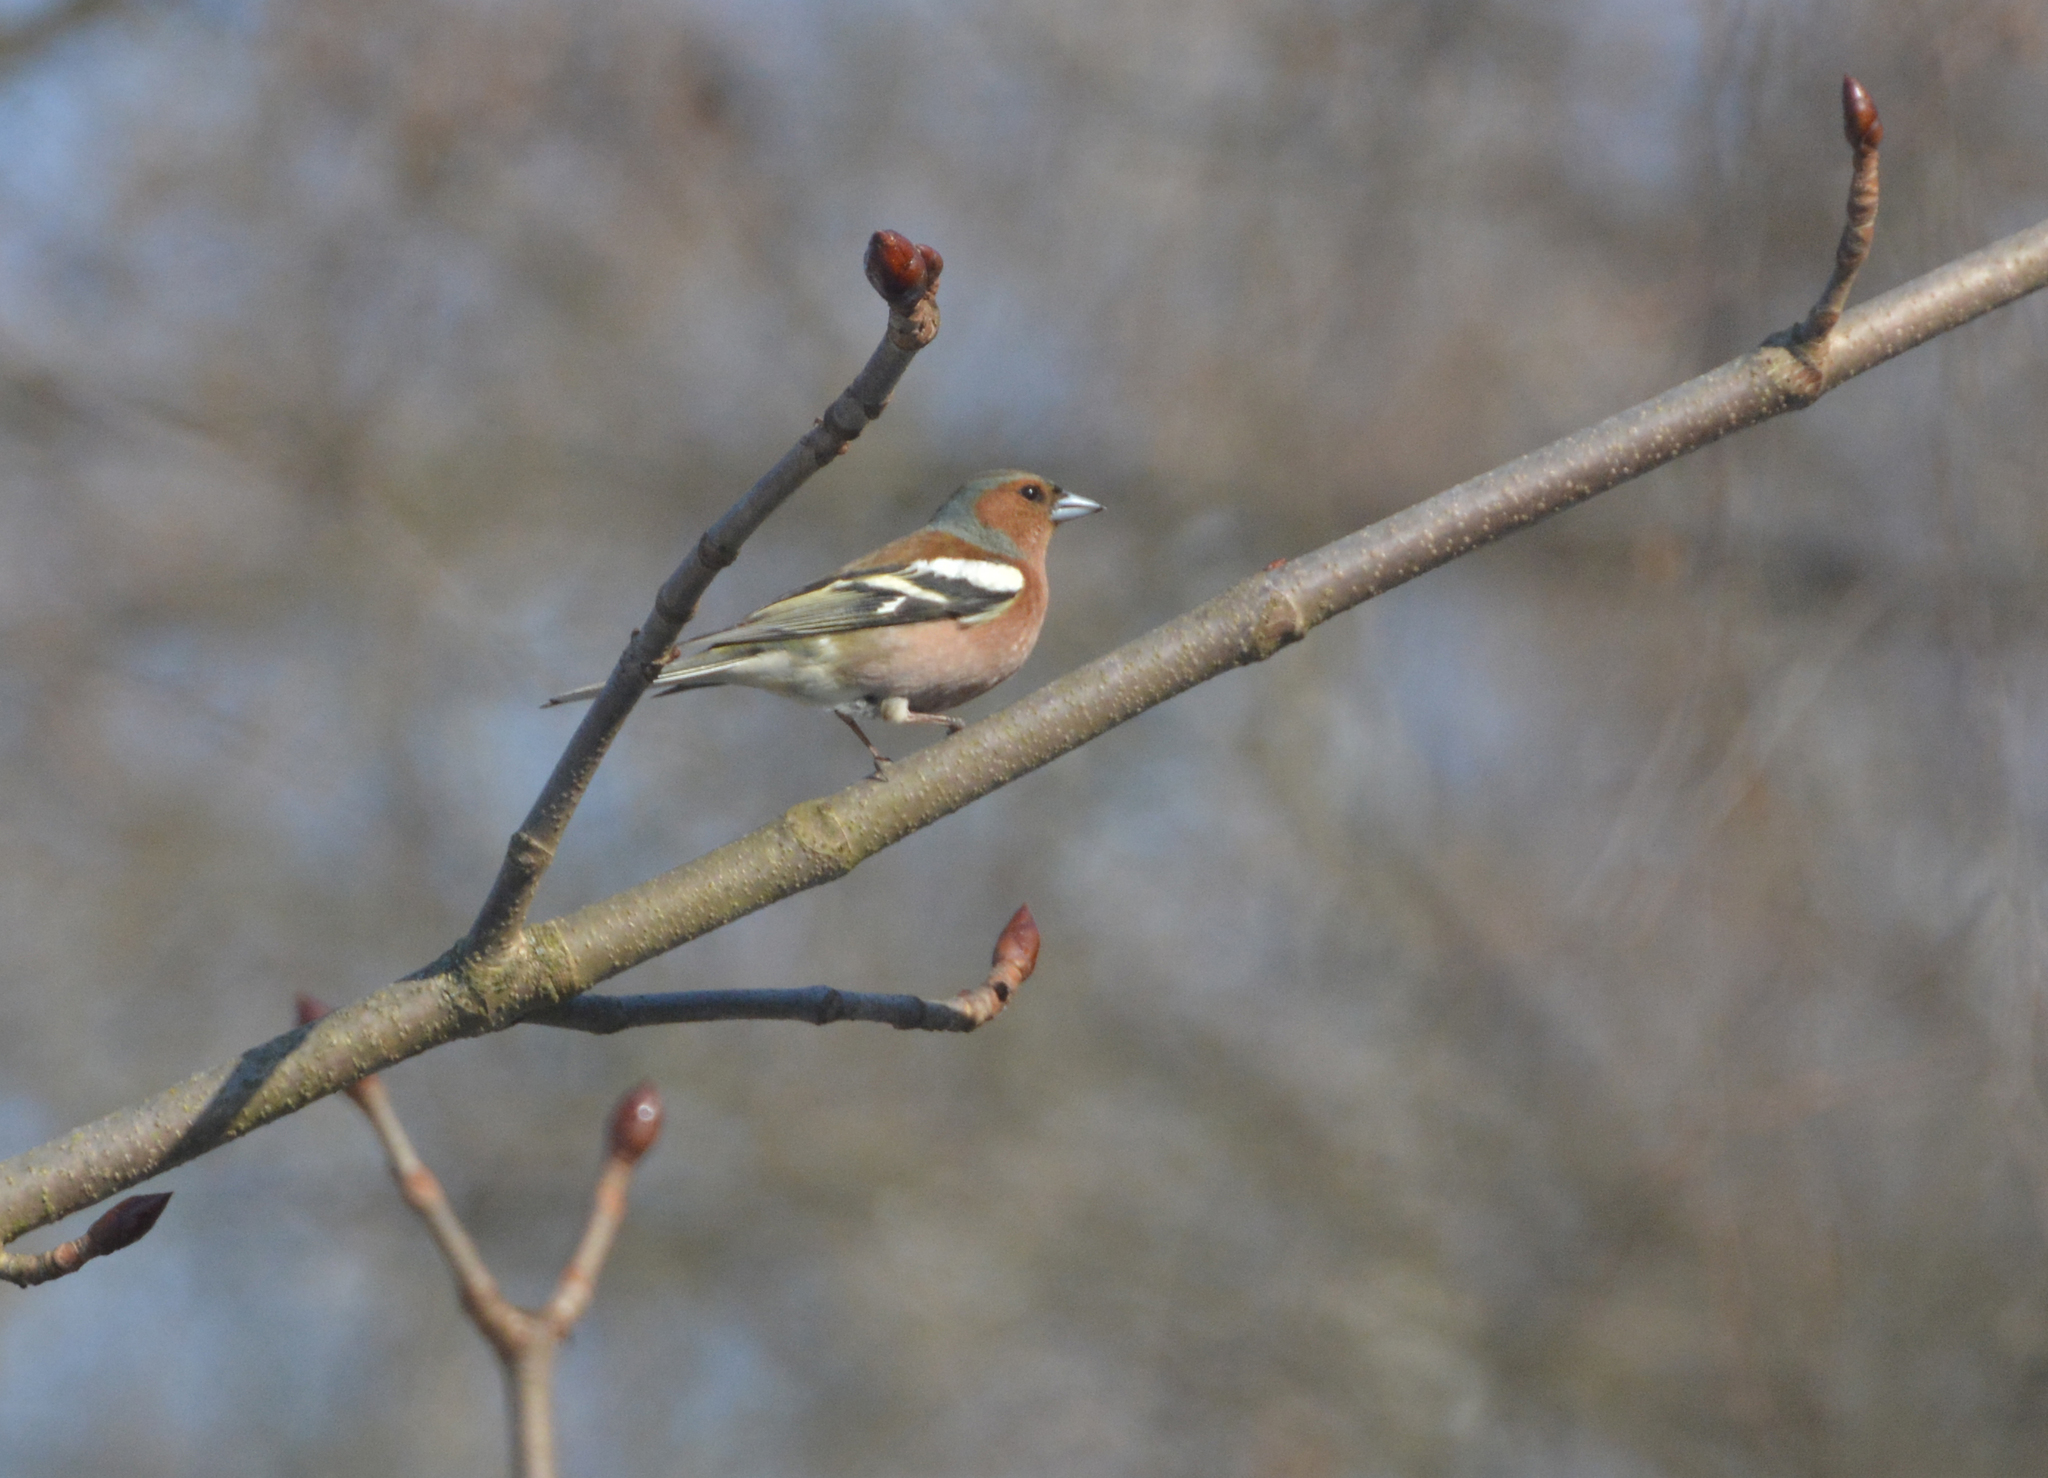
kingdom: Animalia
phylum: Chordata
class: Aves
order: Passeriformes
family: Fringillidae
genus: Fringilla
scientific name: Fringilla coelebs
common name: Common chaffinch
